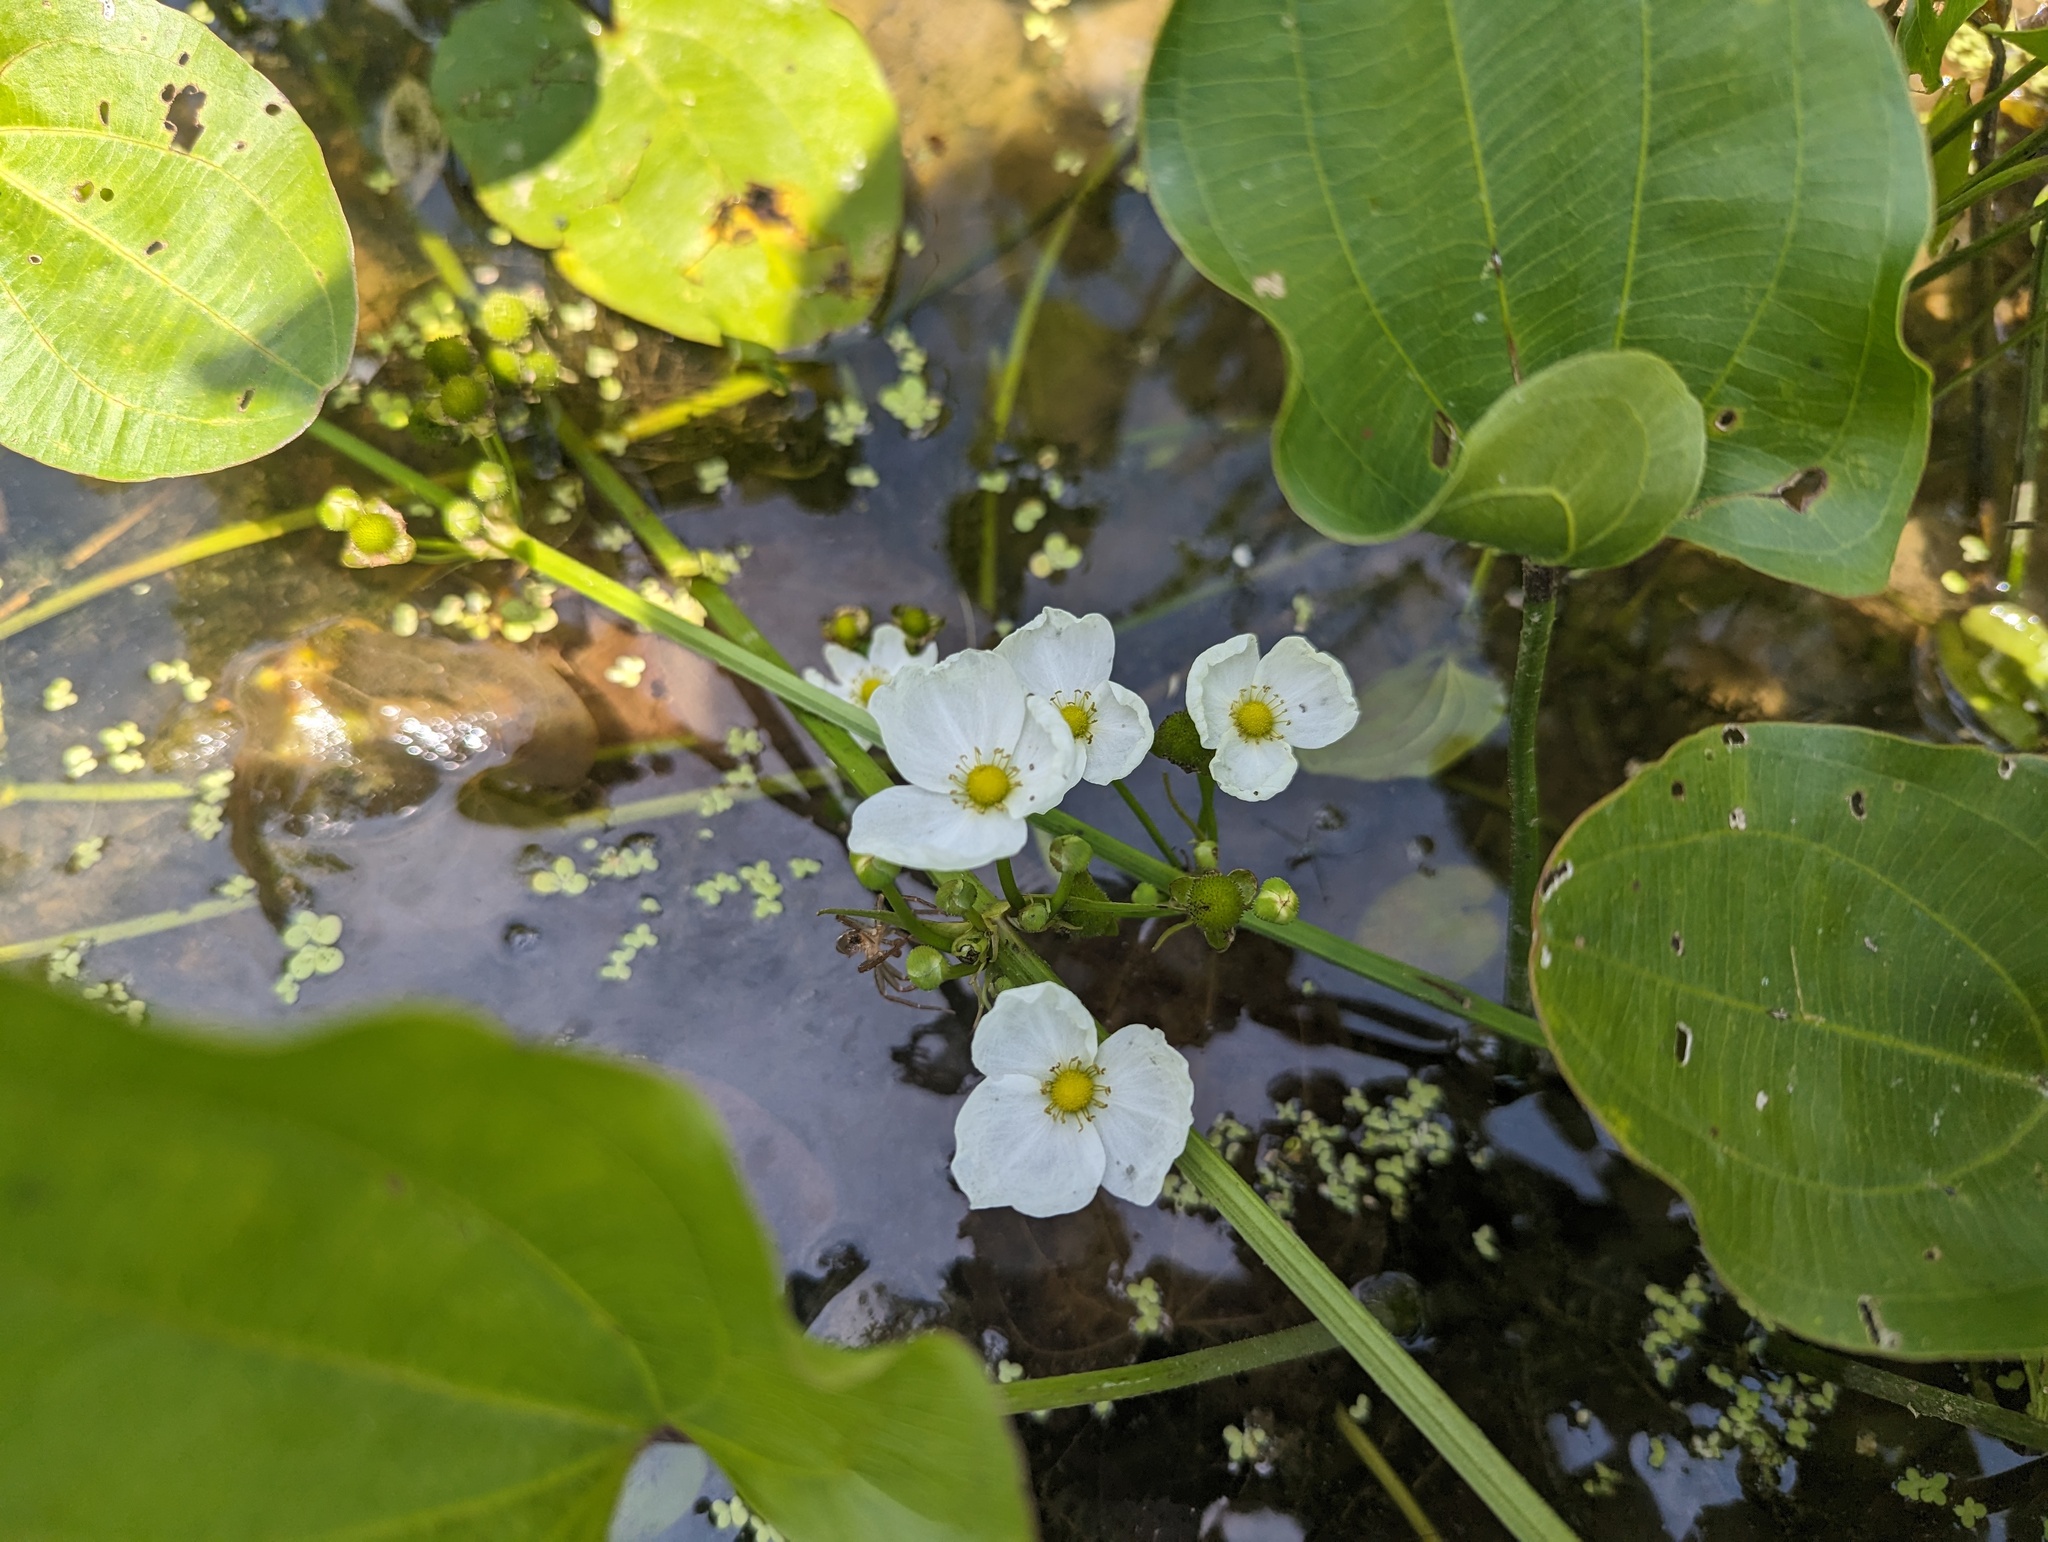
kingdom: Plantae
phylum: Tracheophyta
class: Liliopsida
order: Alismatales
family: Alismataceae
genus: Aquarius
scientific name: Aquarius cordifolius
